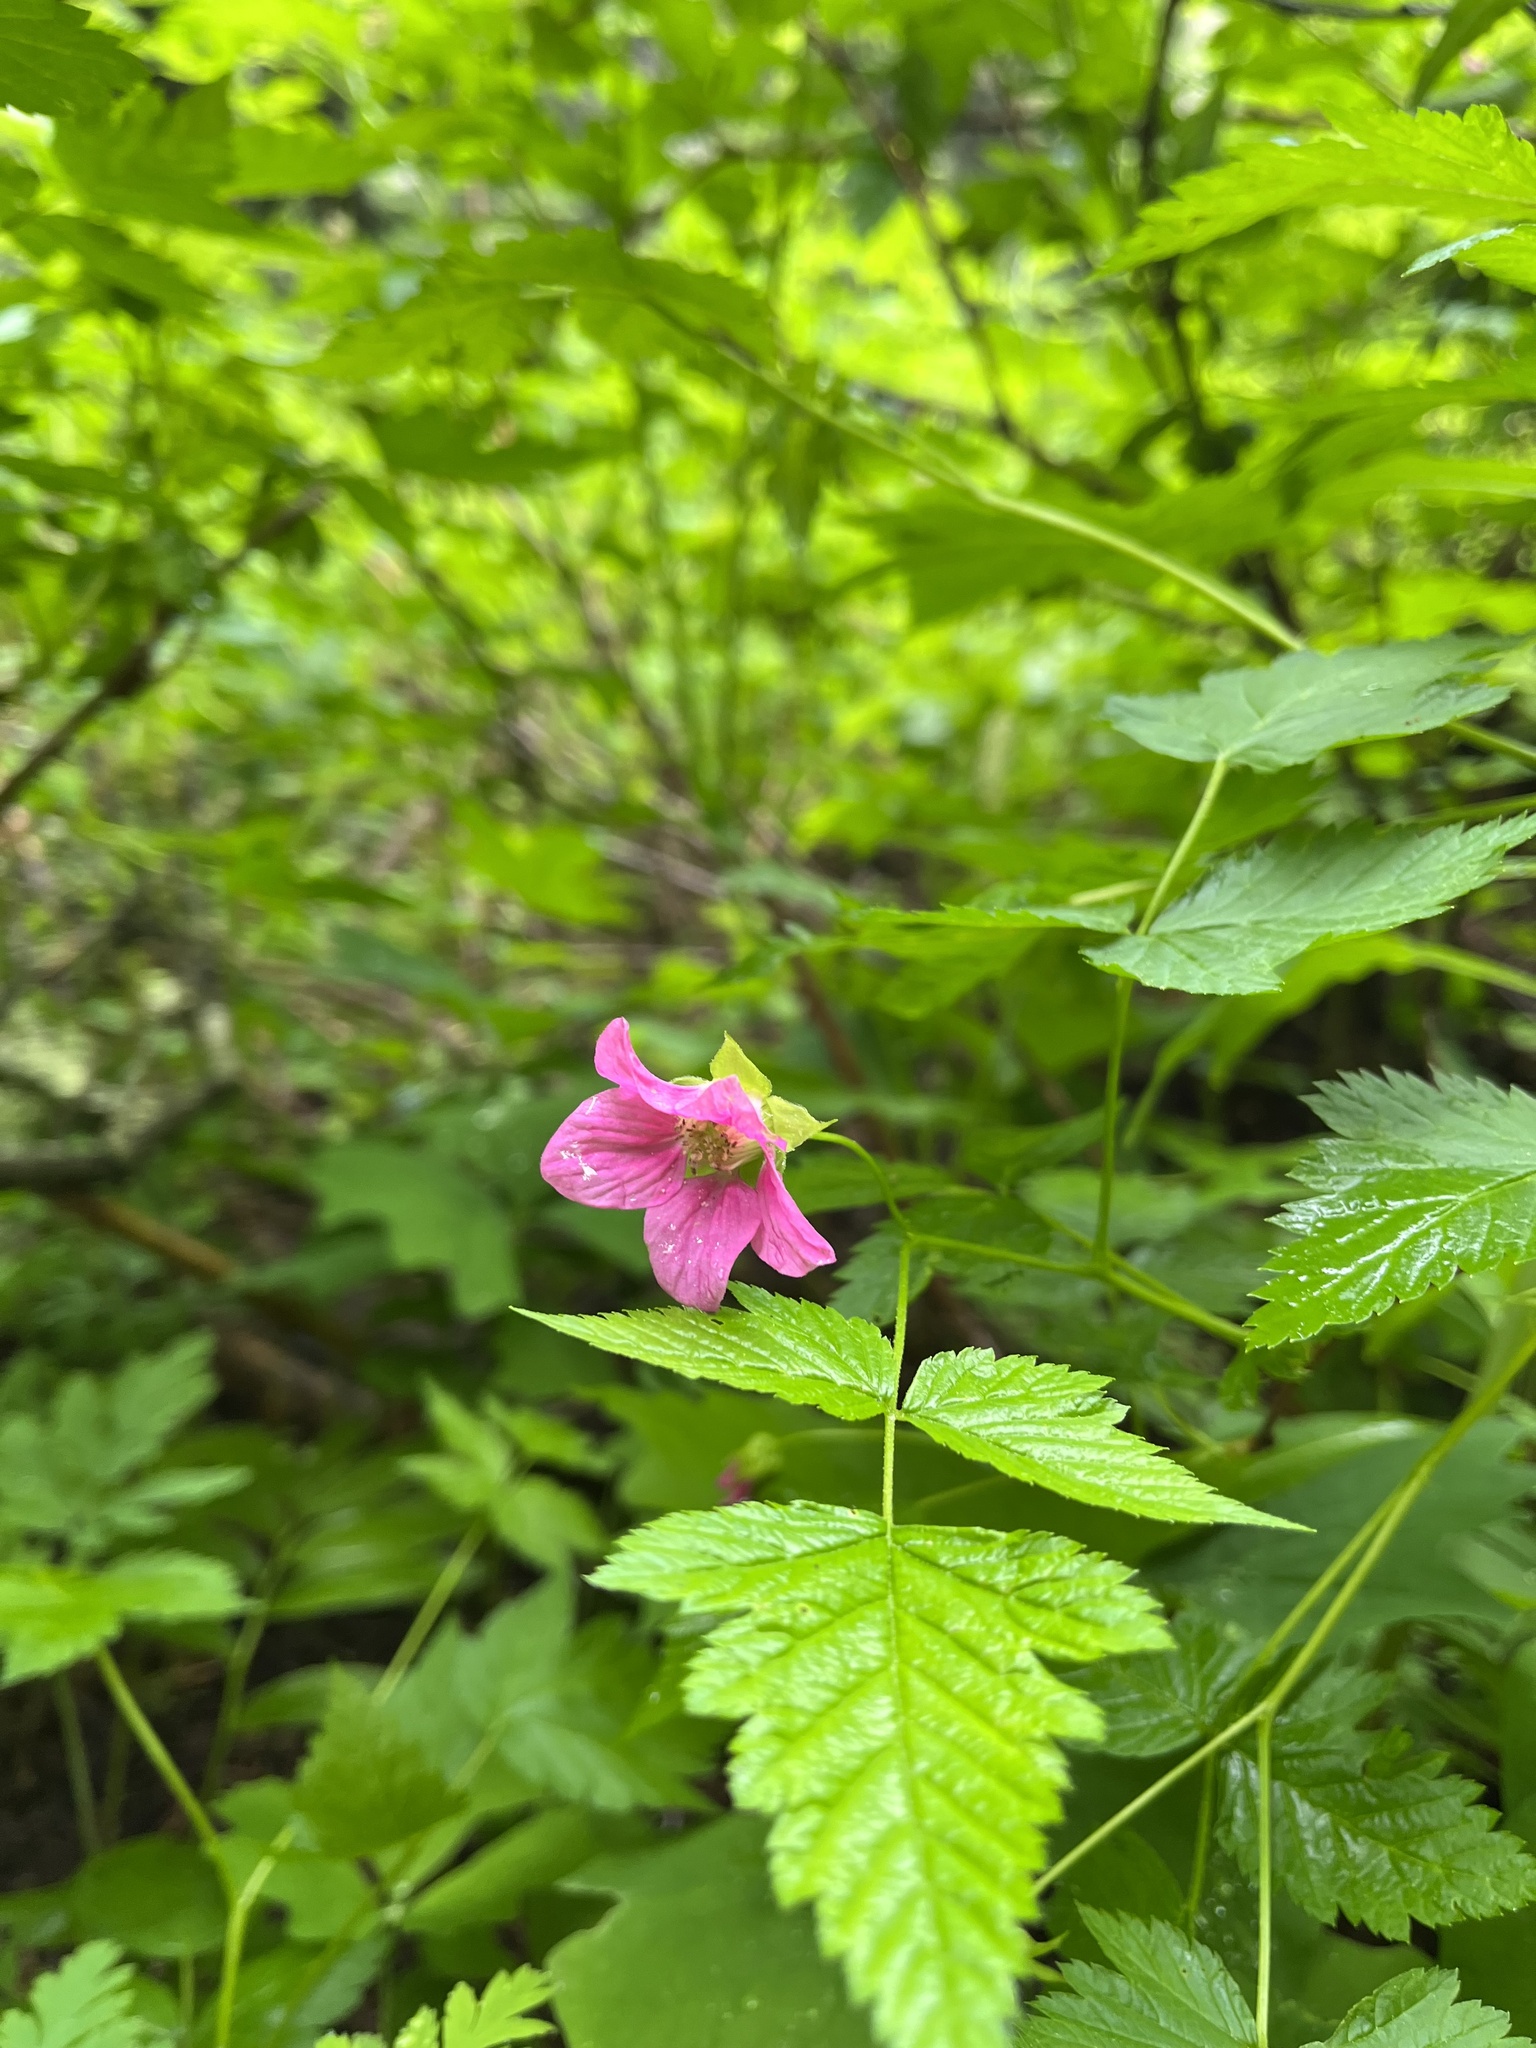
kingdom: Plantae
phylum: Tracheophyta
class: Magnoliopsida
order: Rosales
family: Rosaceae
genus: Rubus
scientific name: Rubus spectabilis
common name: Salmonberry
